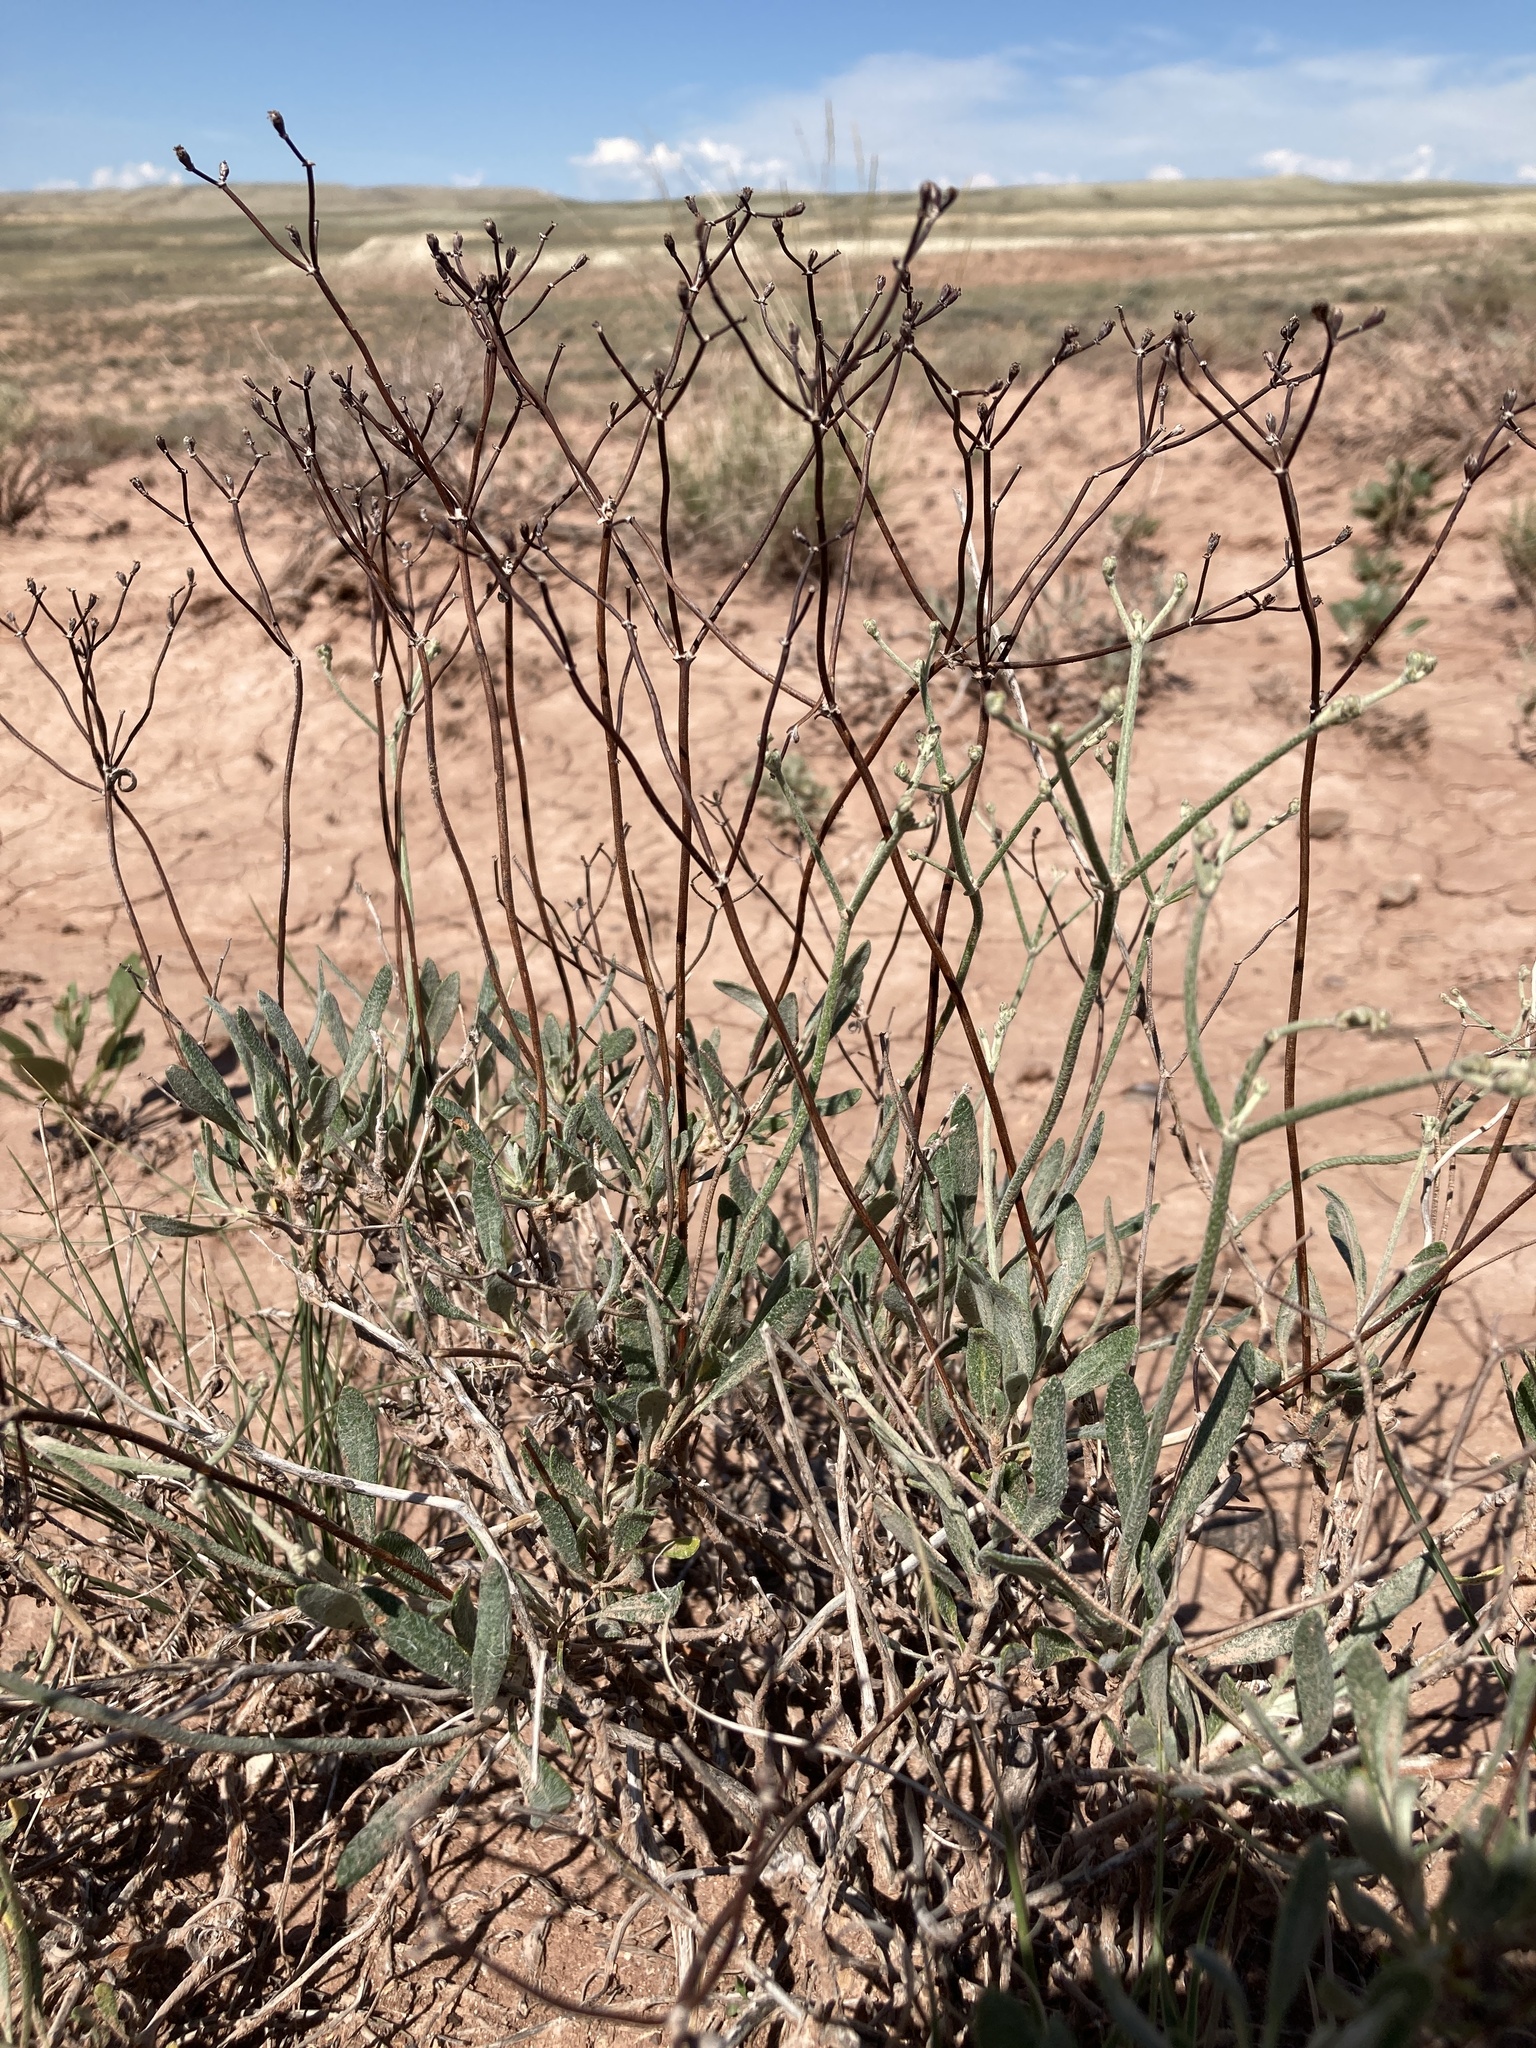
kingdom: Plantae
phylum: Tracheophyta
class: Magnoliopsida
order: Caryophyllales
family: Polygonaceae
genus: Eriogonum
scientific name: Eriogonum brevicaule
